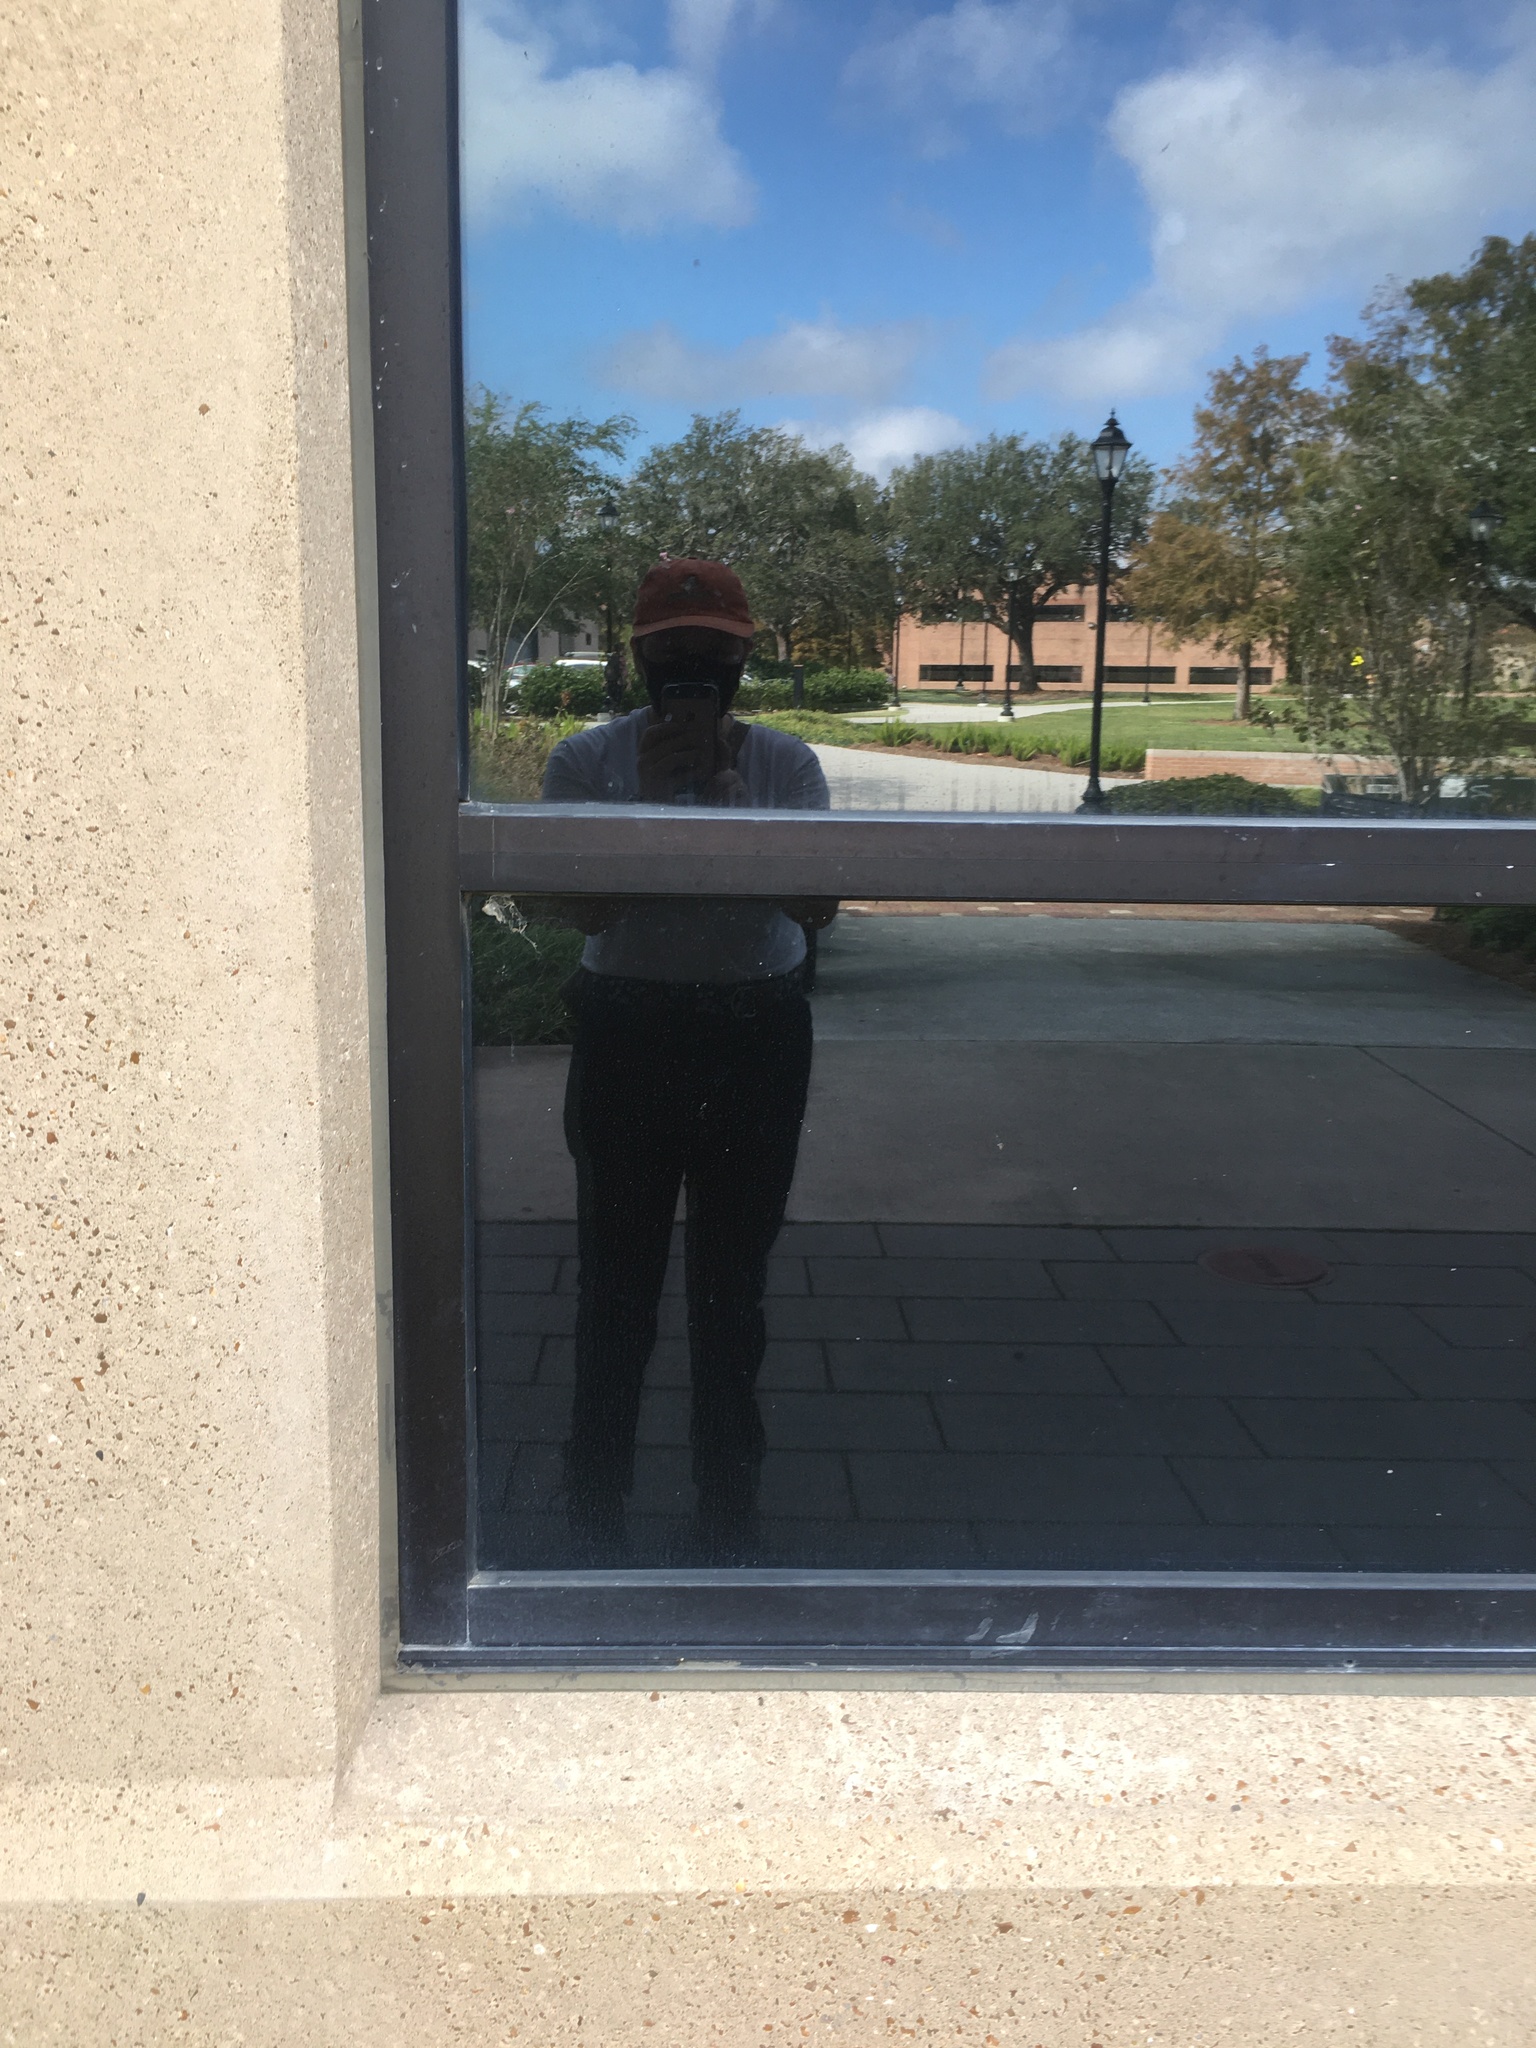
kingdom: Animalia
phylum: Chordata
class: Aves
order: Passeriformes
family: Parulidae
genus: Mniotilta
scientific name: Mniotilta varia
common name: Black-and-white warbler
